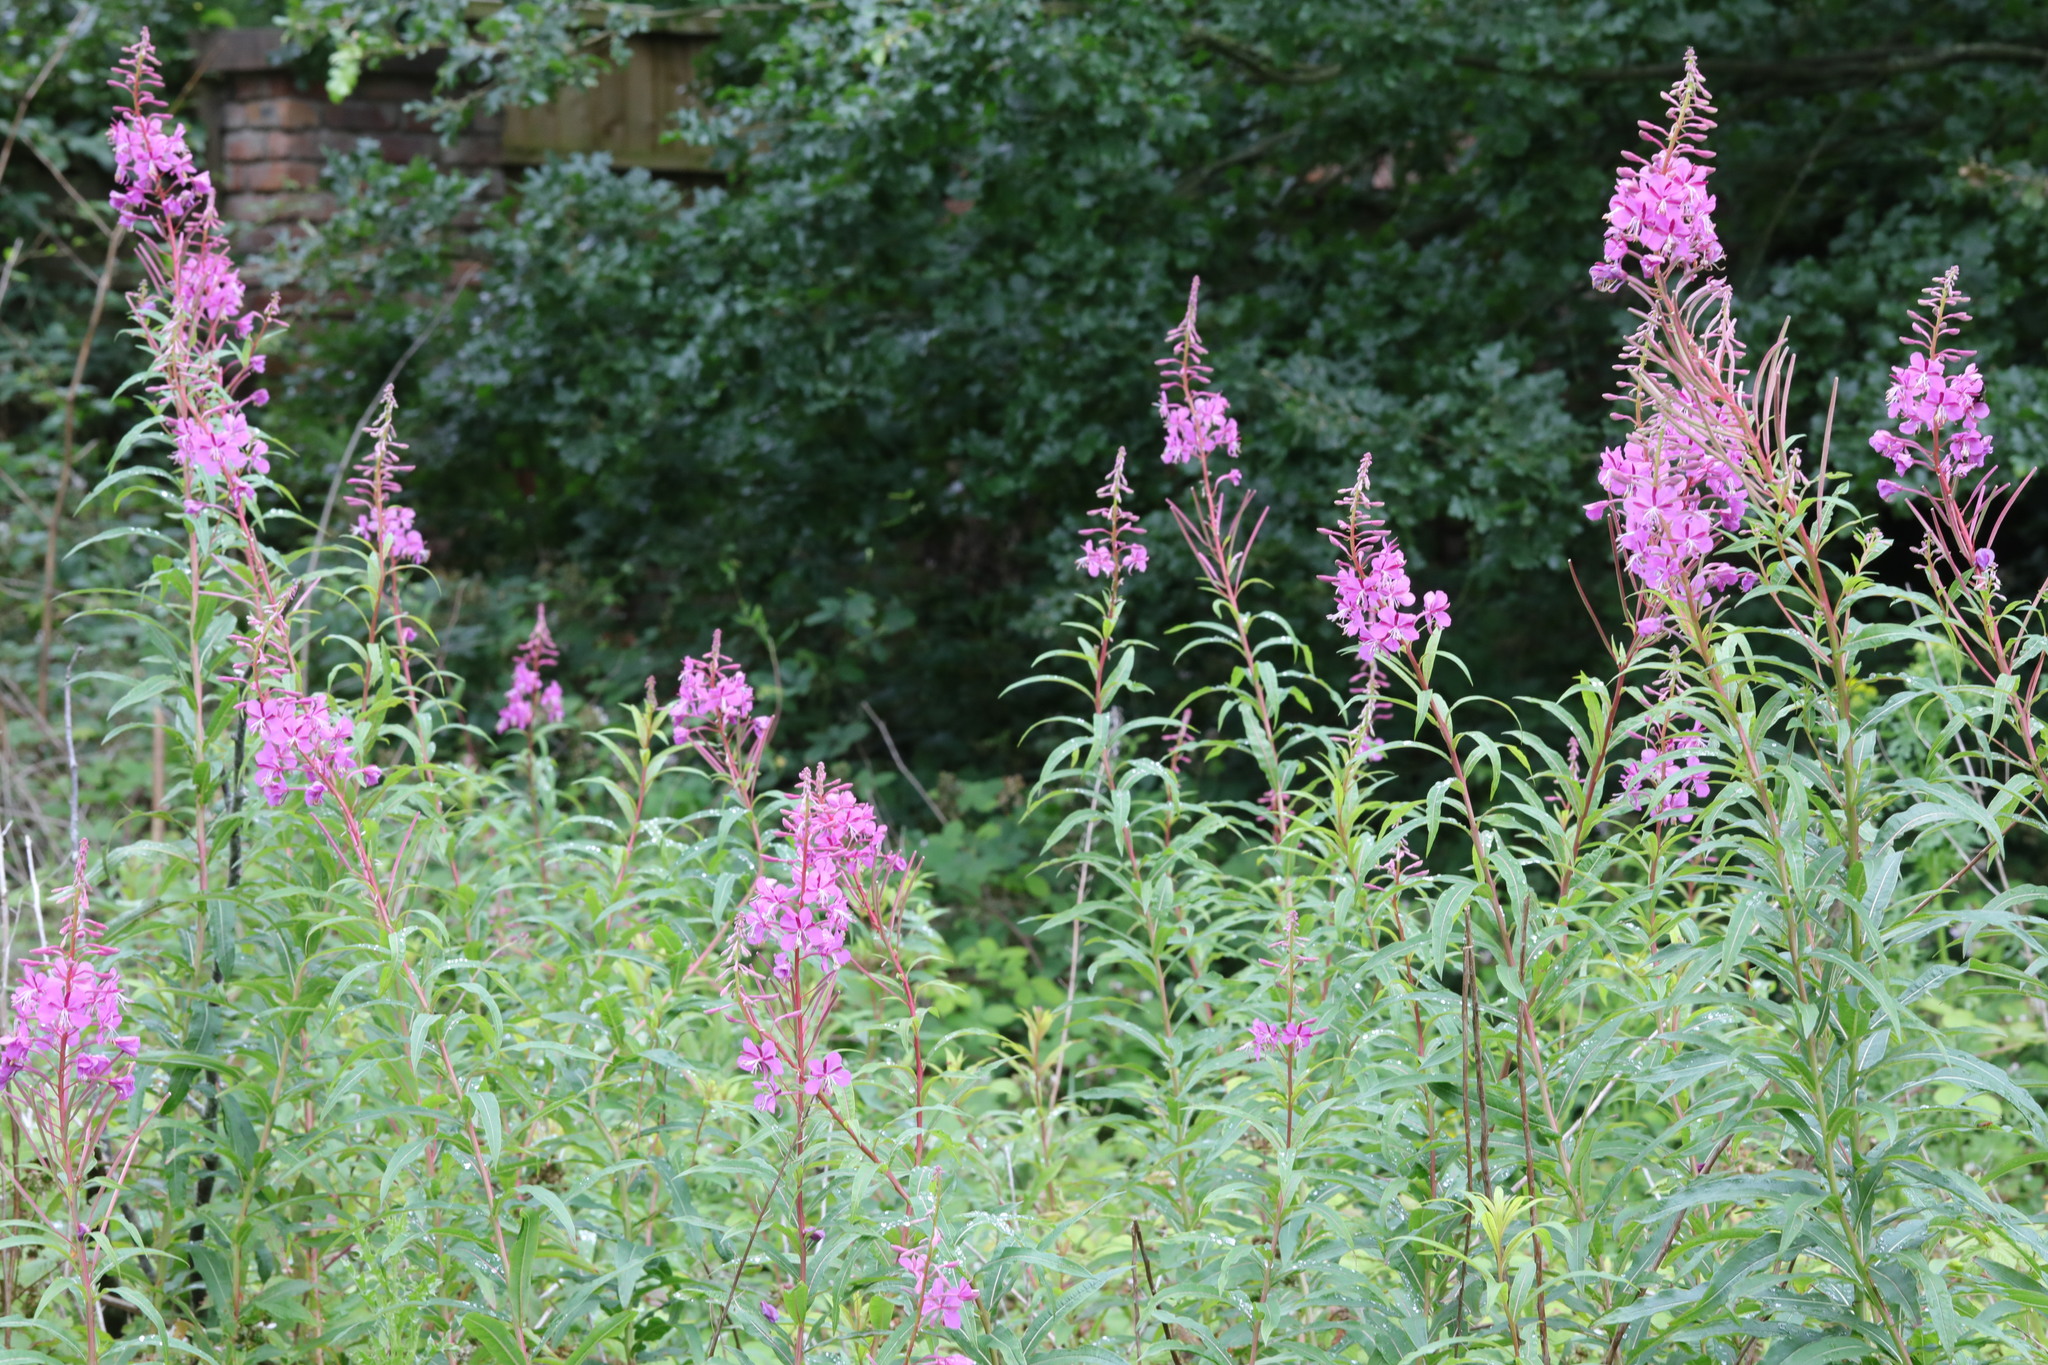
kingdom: Plantae
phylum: Tracheophyta
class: Magnoliopsida
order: Myrtales
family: Onagraceae
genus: Chamaenerion
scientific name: Chamaenerion angustifolium
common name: Fireweed
